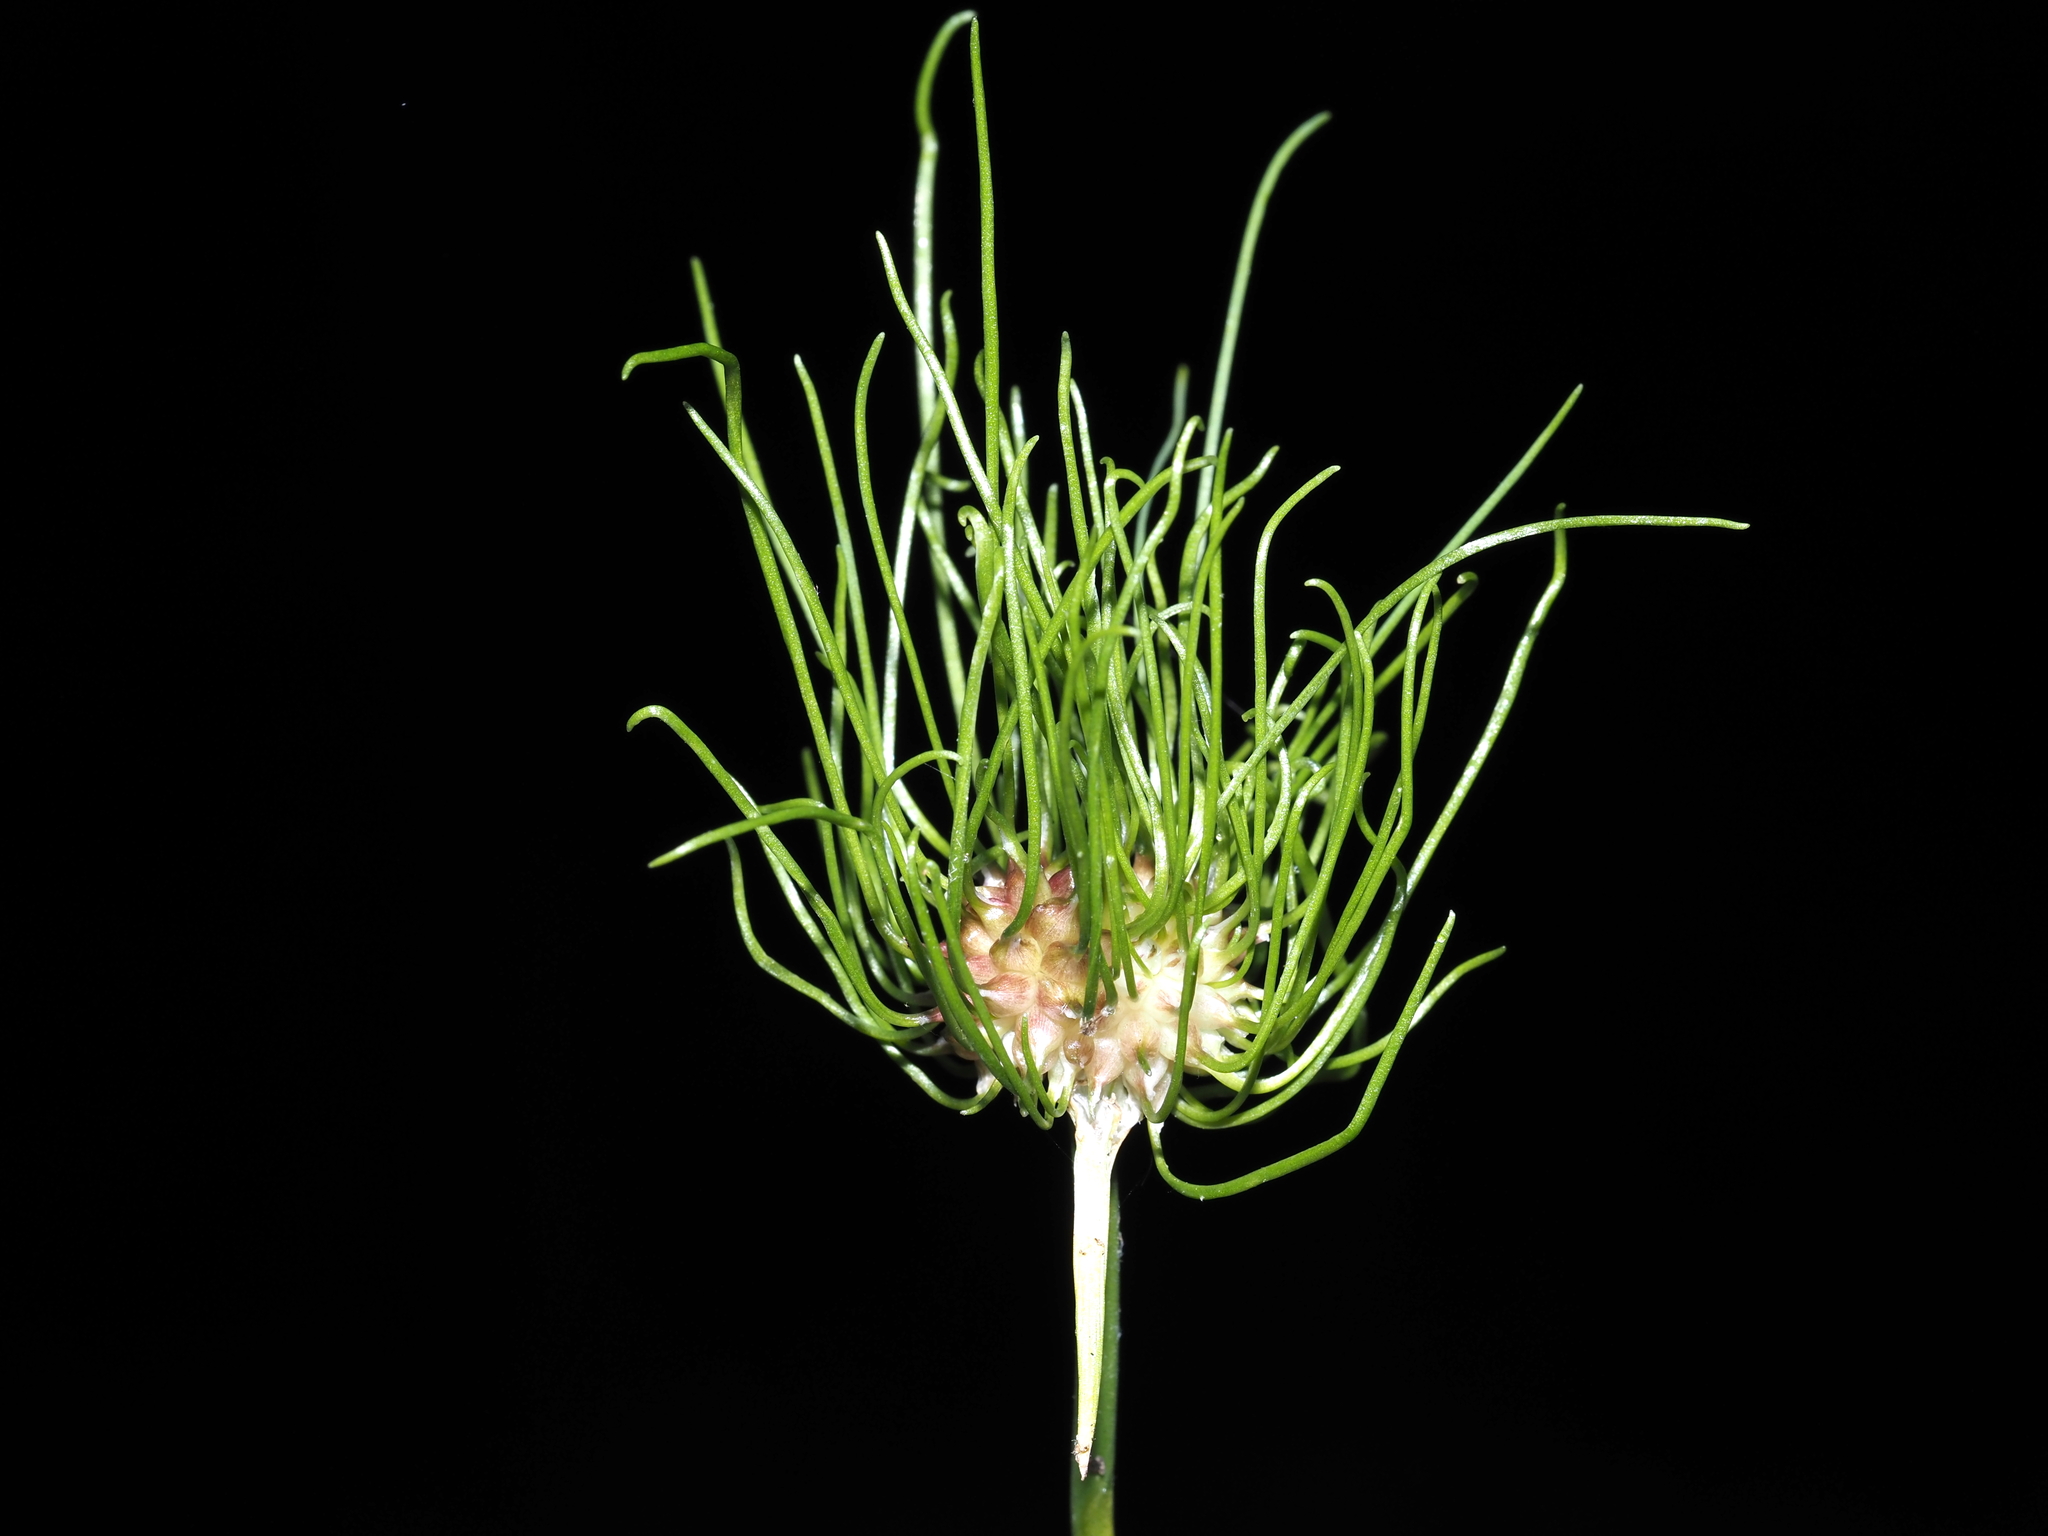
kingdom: Plantae
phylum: Tracheophyta
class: Liliopsida
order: Asparagales
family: Amaryllidaceae
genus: Allium
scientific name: Allium vineale
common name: Crow garlic
